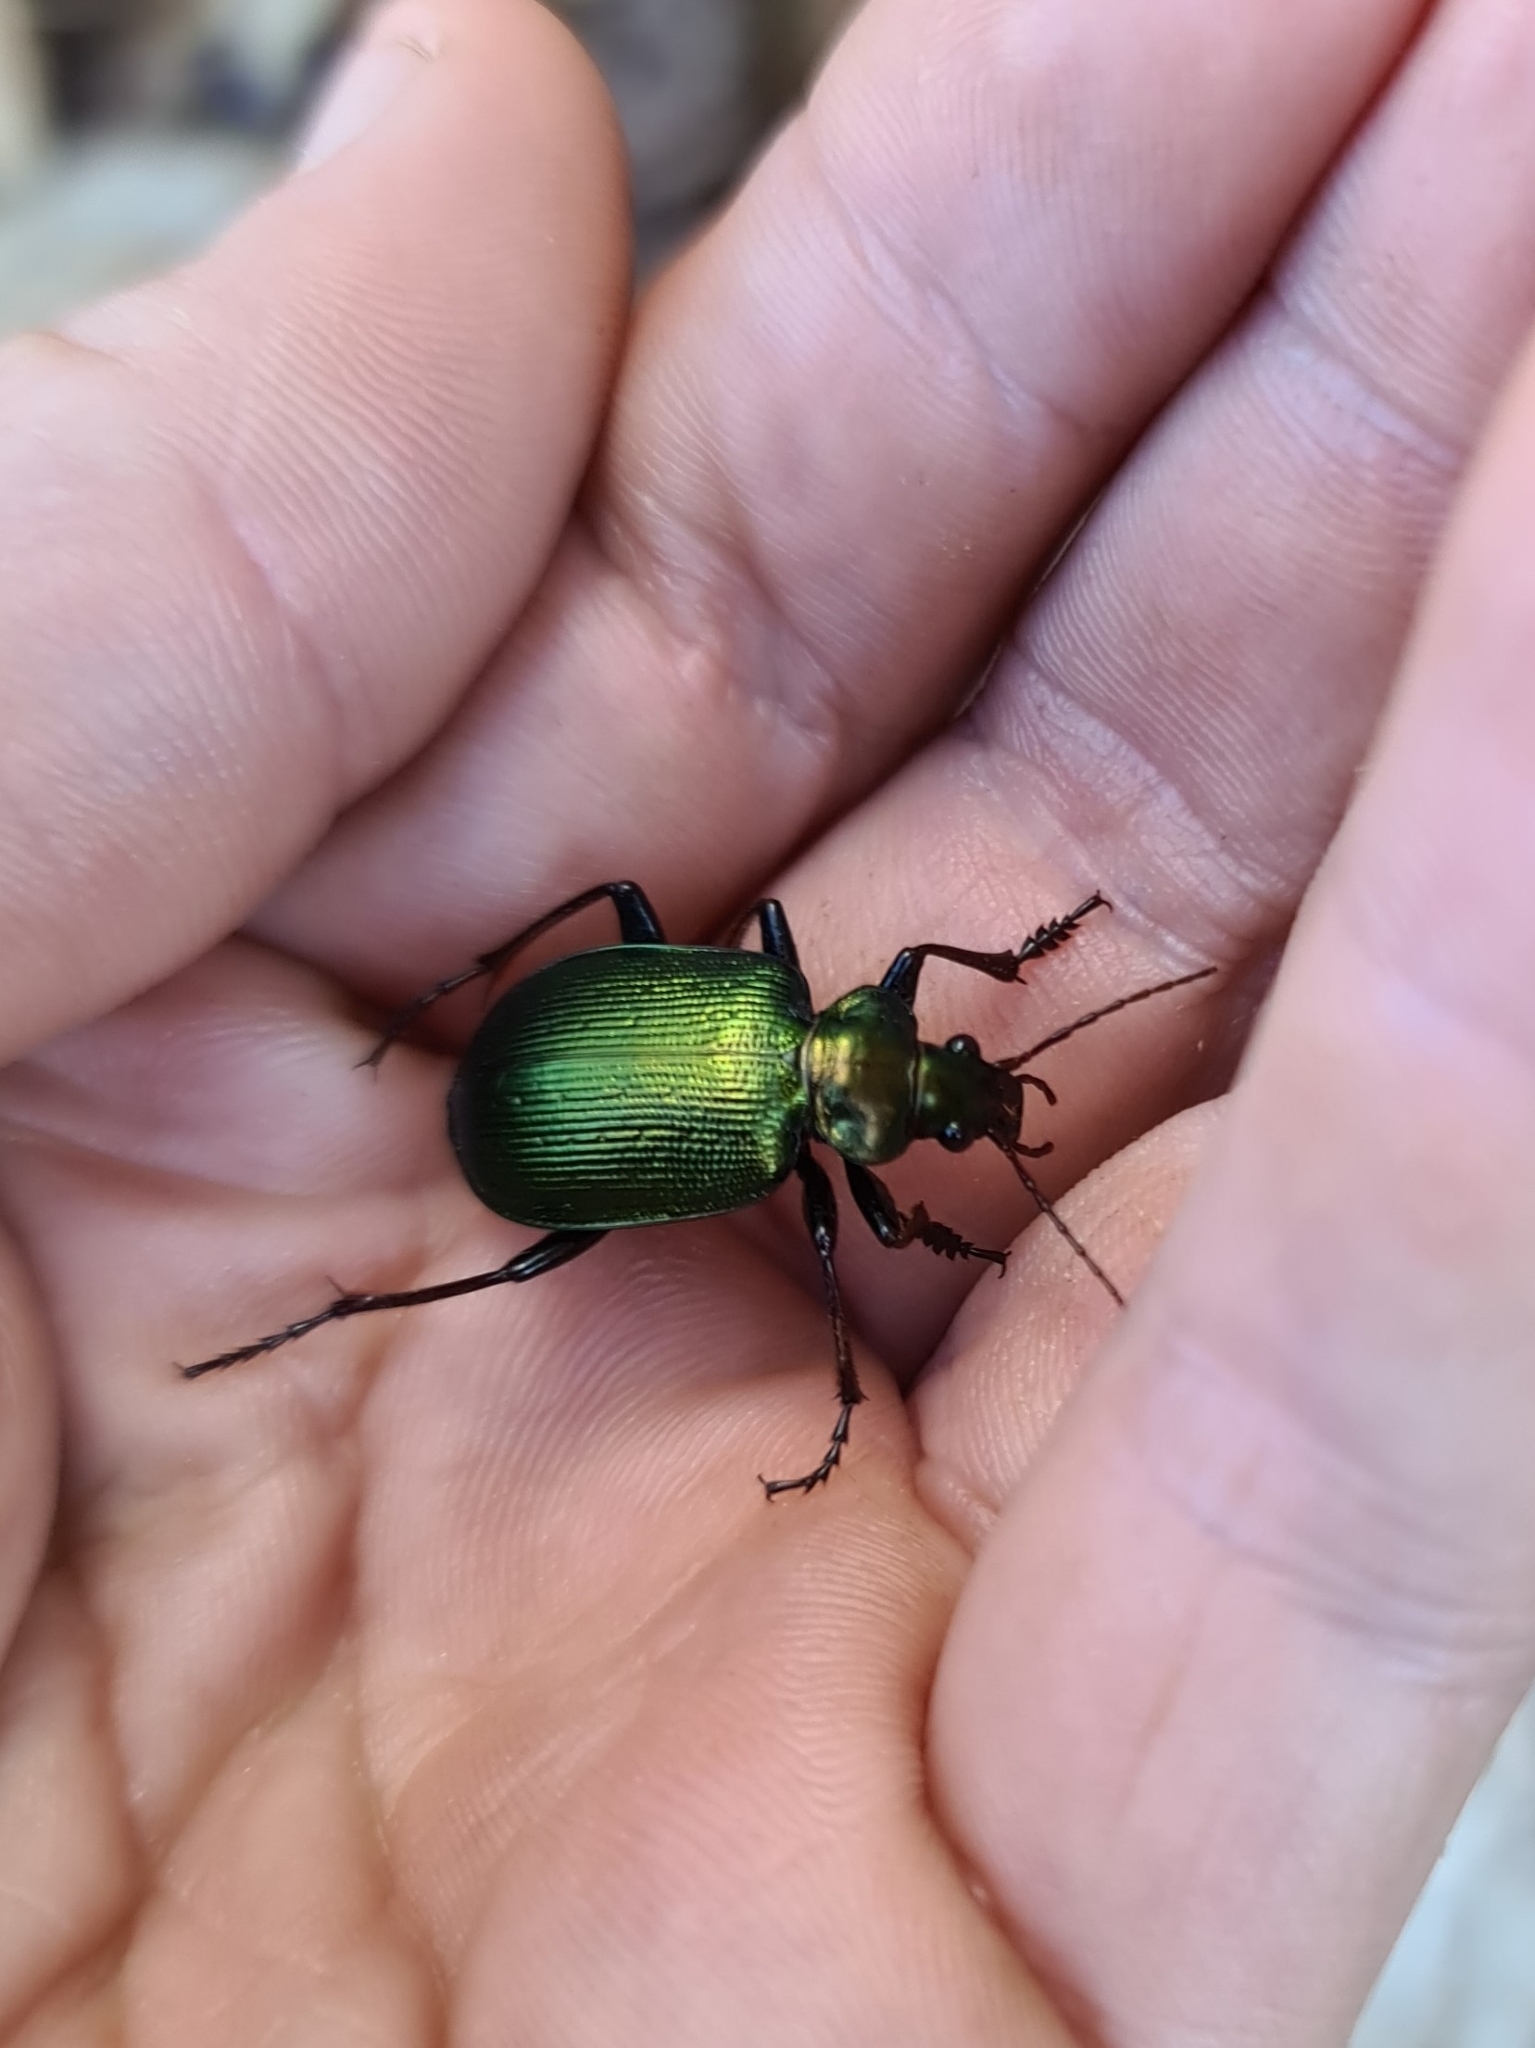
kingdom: Animalia
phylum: Arthropoda
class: Insecta
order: Coleoptera
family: Carabidae
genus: Calosoma
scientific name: Calosoma schayeri
